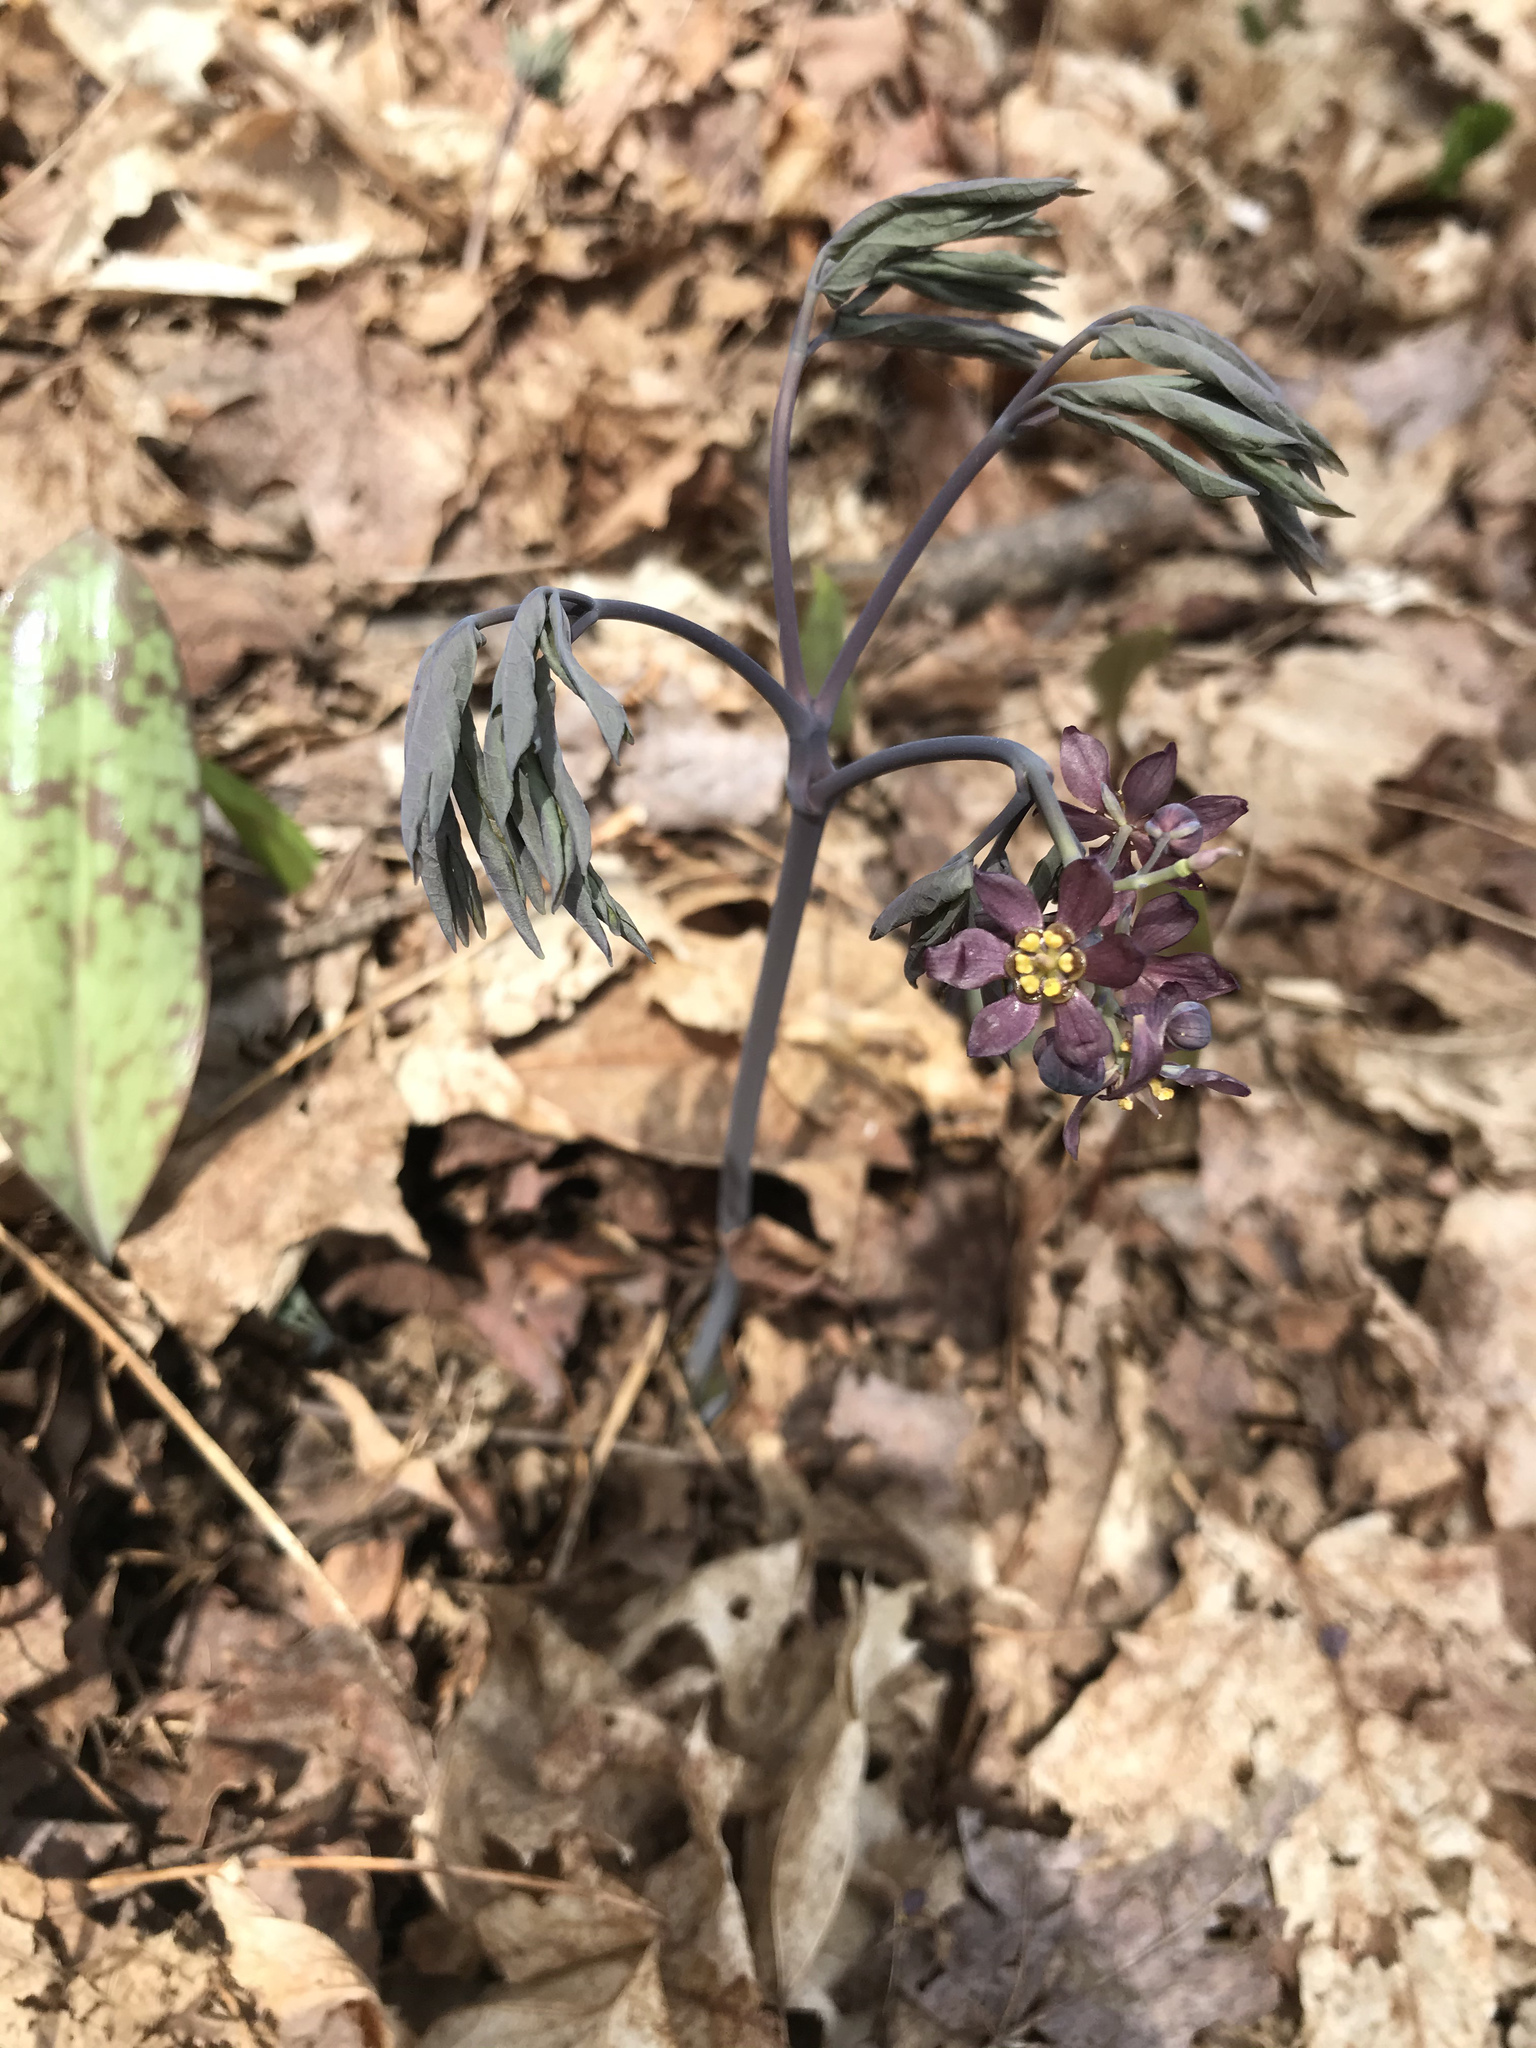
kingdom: Plantae
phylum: Tracheophyta
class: Magnoliopsida
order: Ranunculales
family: Berberidaceae
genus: Caulophyllum
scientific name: Caulophyllum giganteum
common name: Blue cohosh
